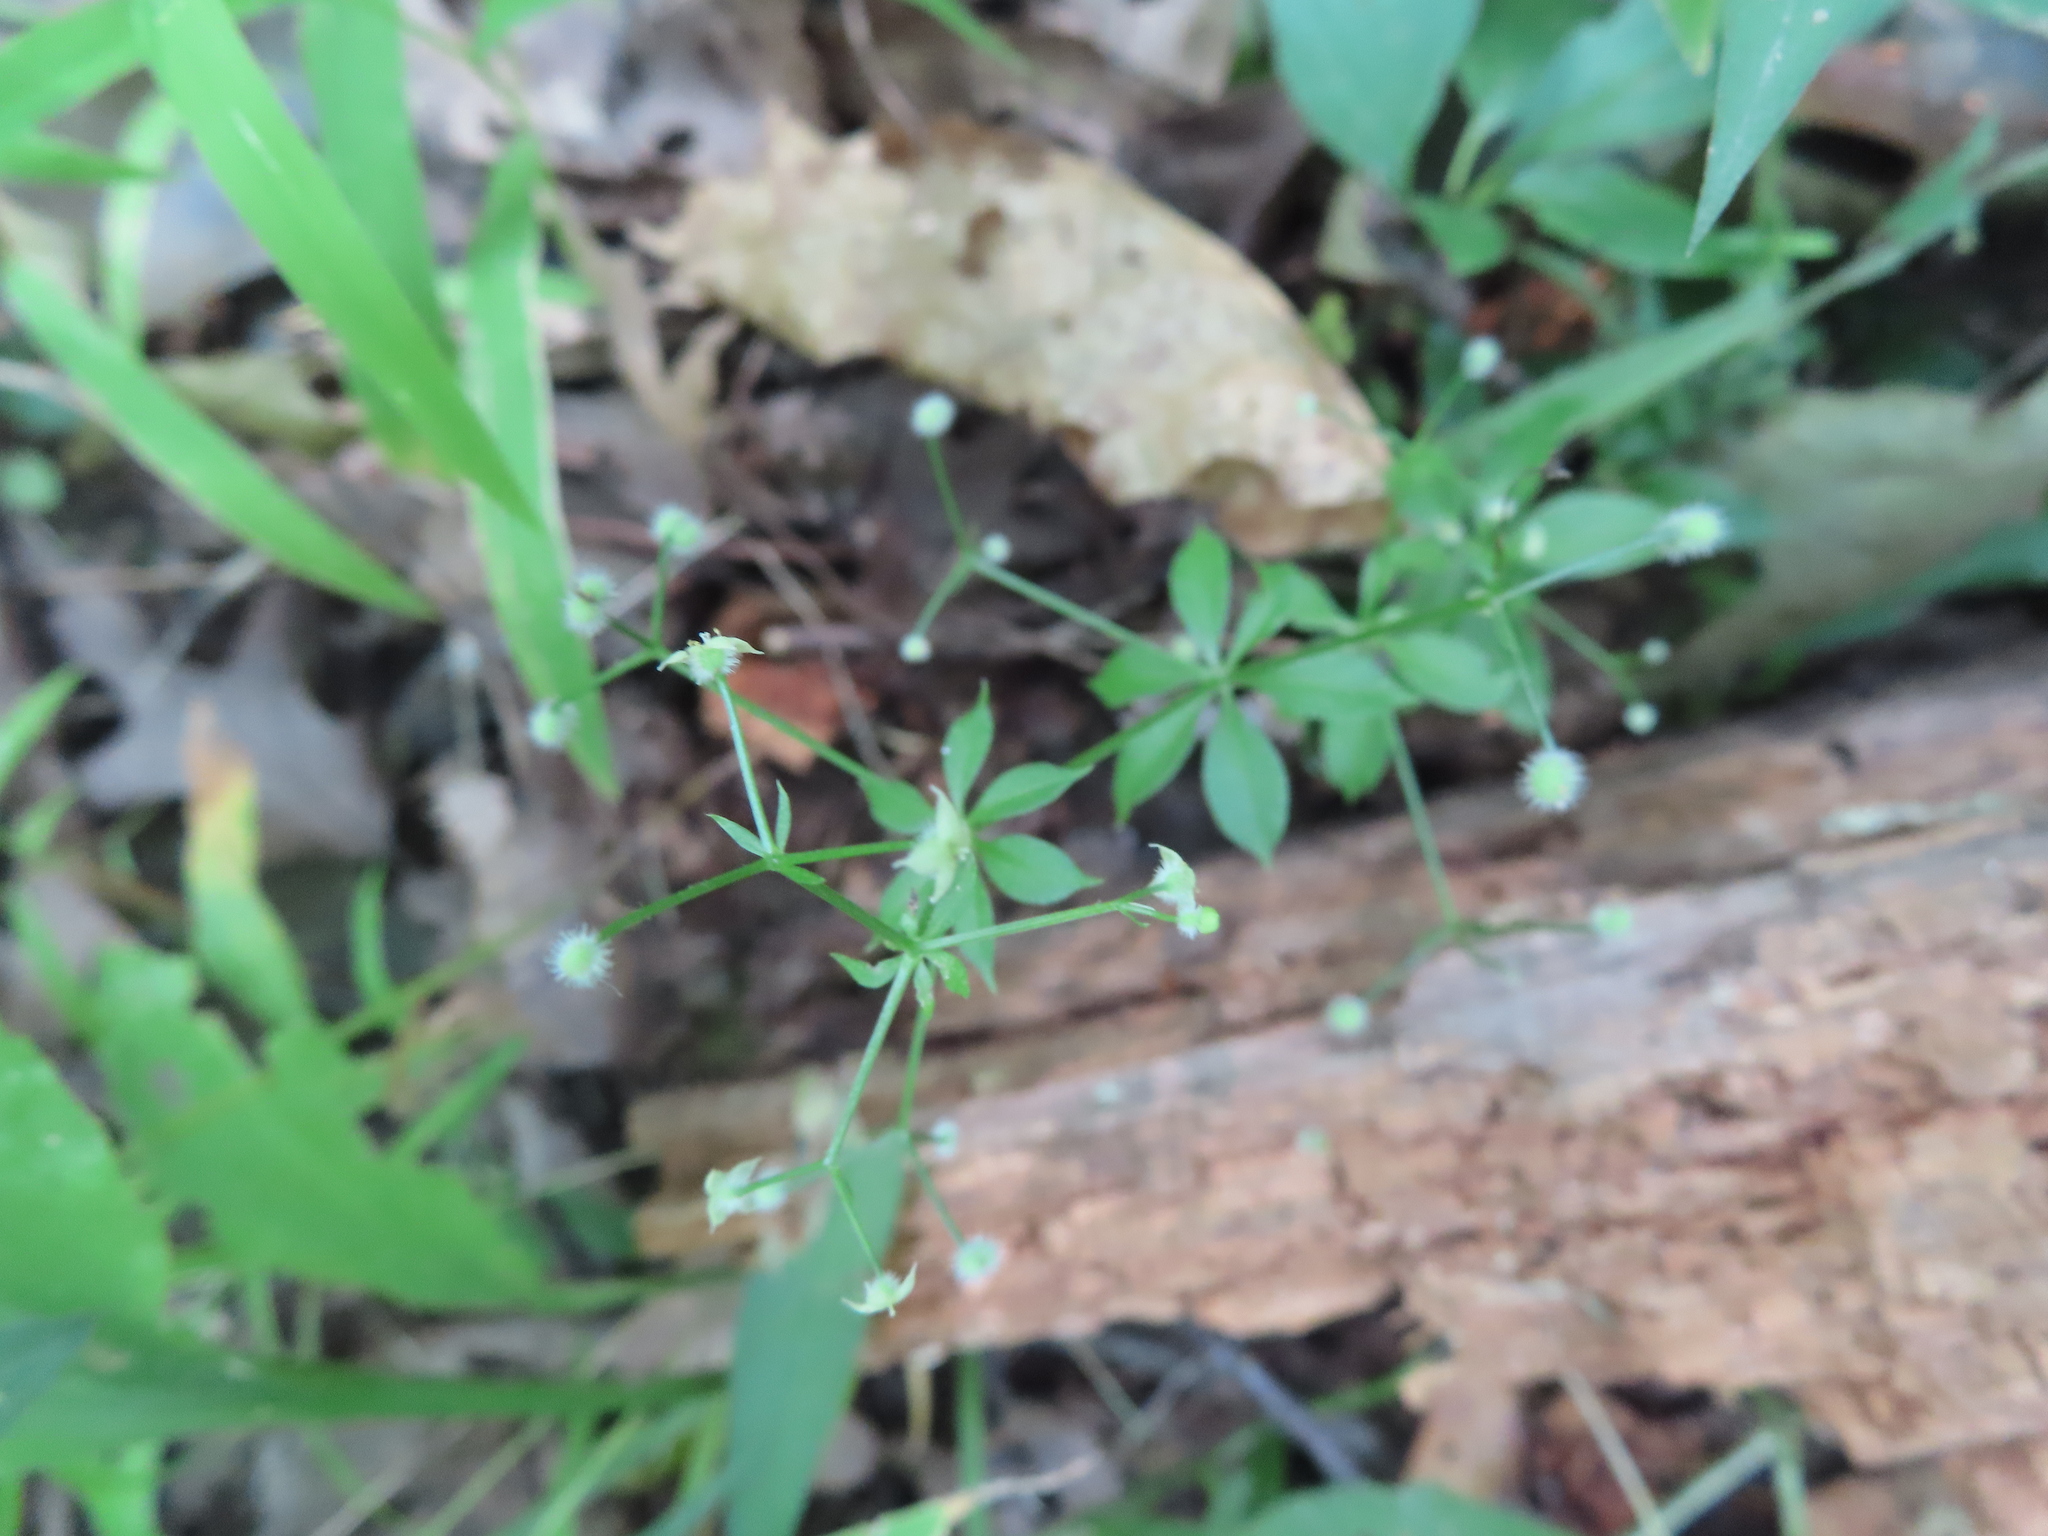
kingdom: Plantae
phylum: Tracheophyta
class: Magnoliopsida
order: Gentianales
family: Rubiaceae
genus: Galium
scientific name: Galium triflorum
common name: Fragrant bedstraw
